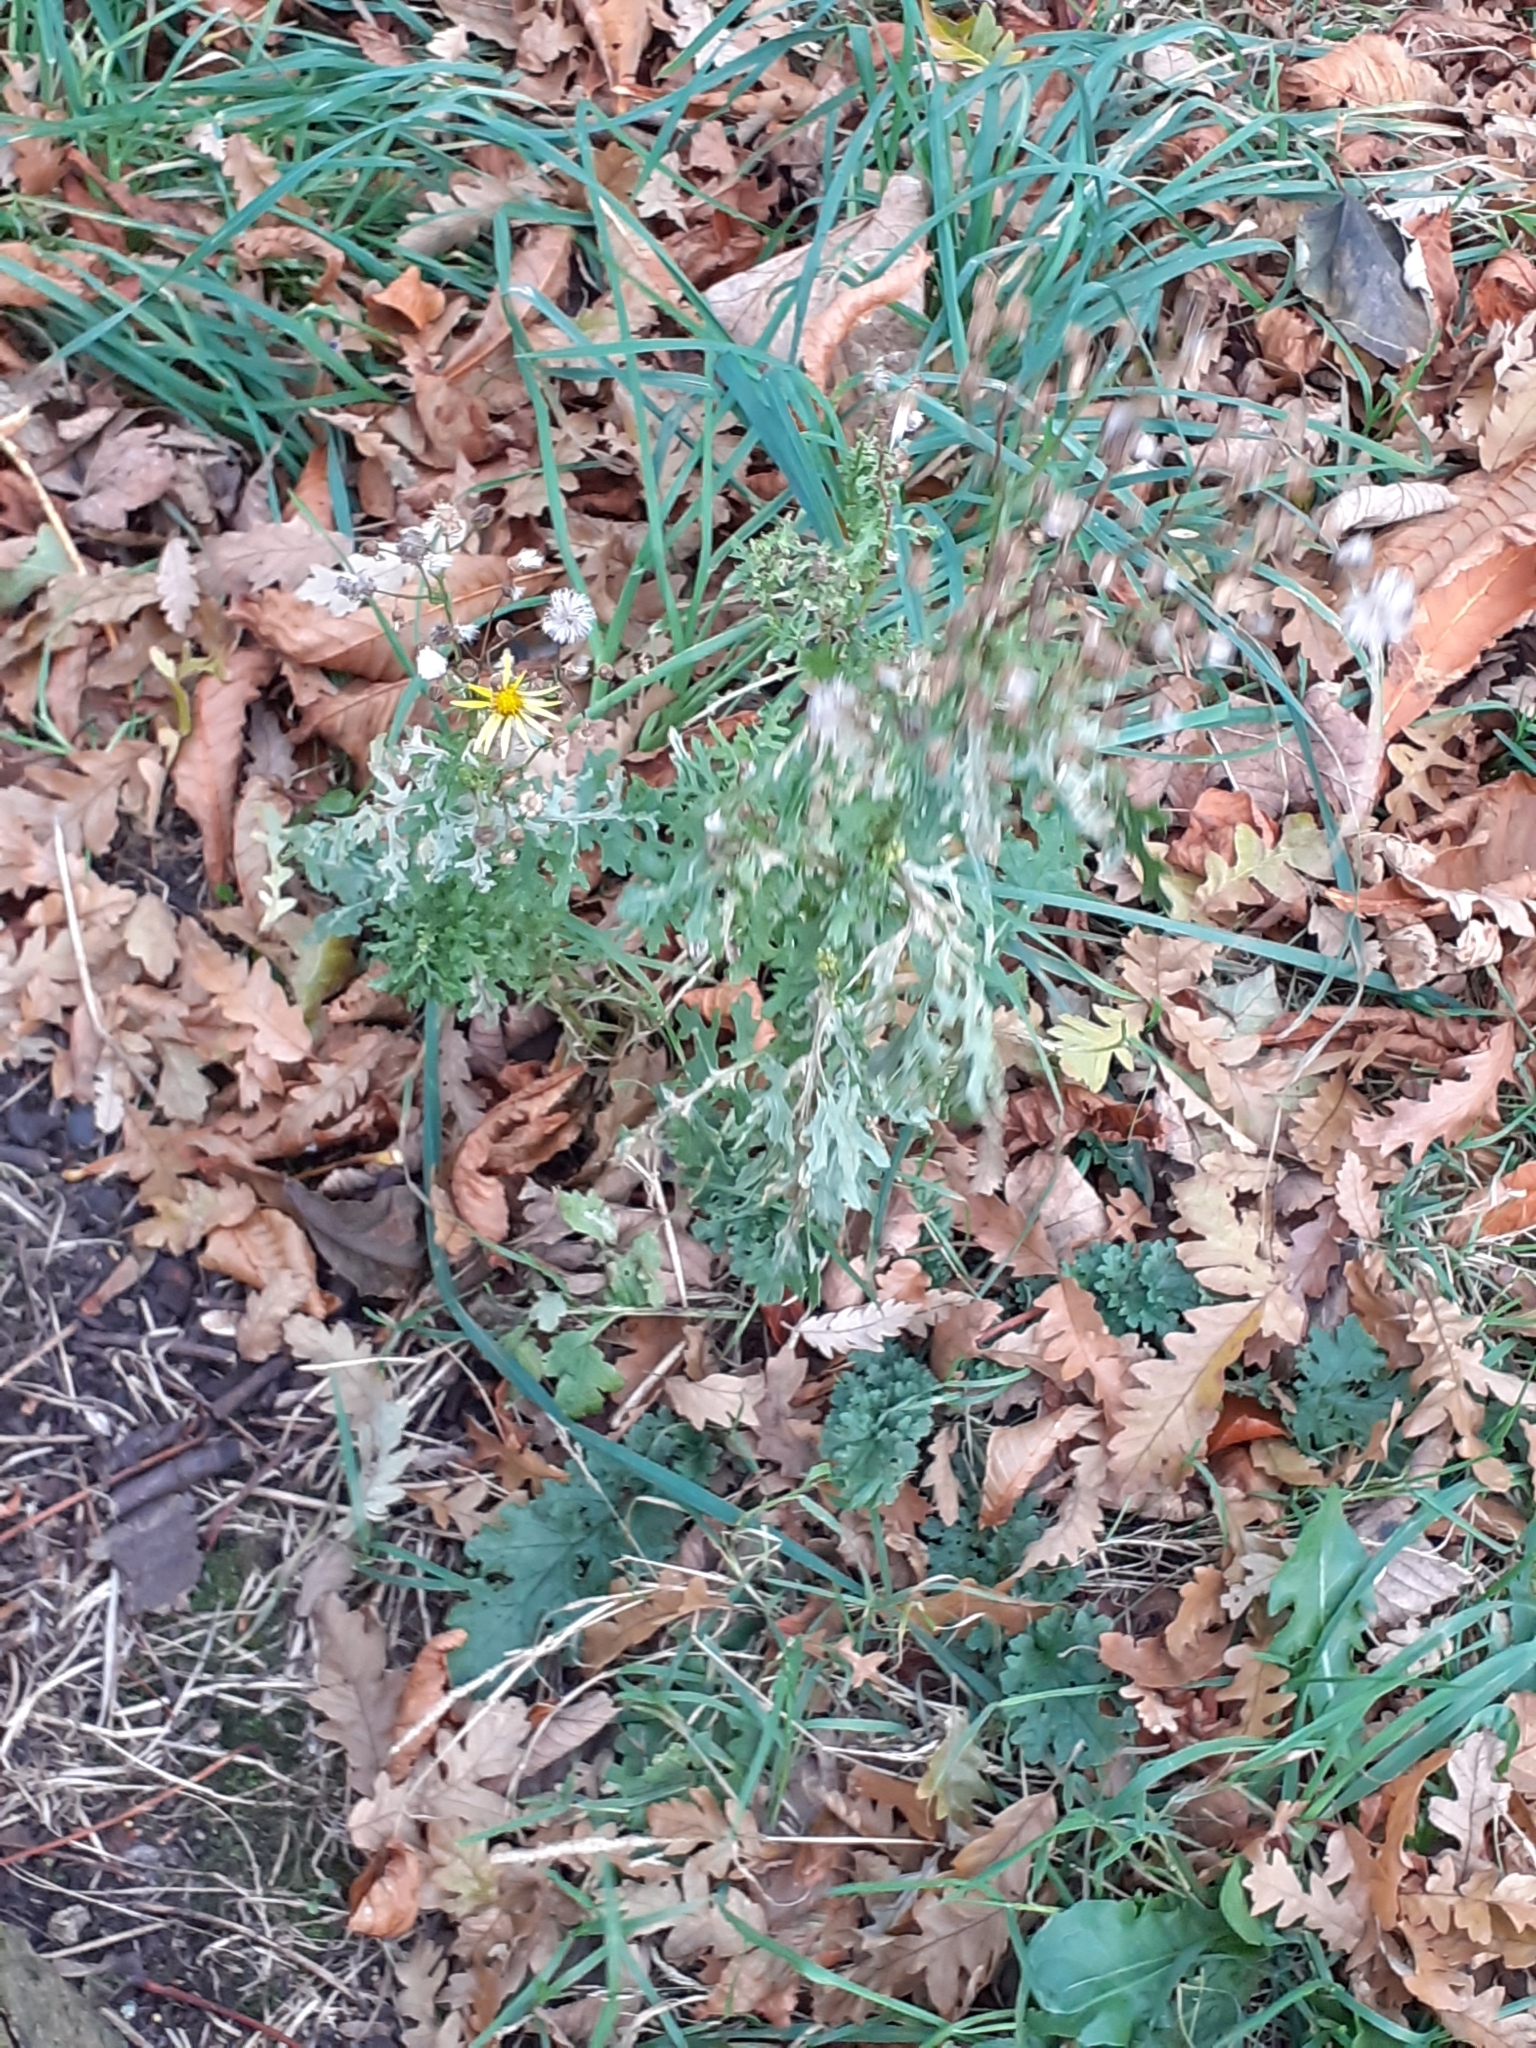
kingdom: Plantae
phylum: Tracheophyta
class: Magnoliopsida
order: Asterales
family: Asteraceae
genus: Jacobaea
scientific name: Jacobaea vulgaris
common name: Stinking willie
